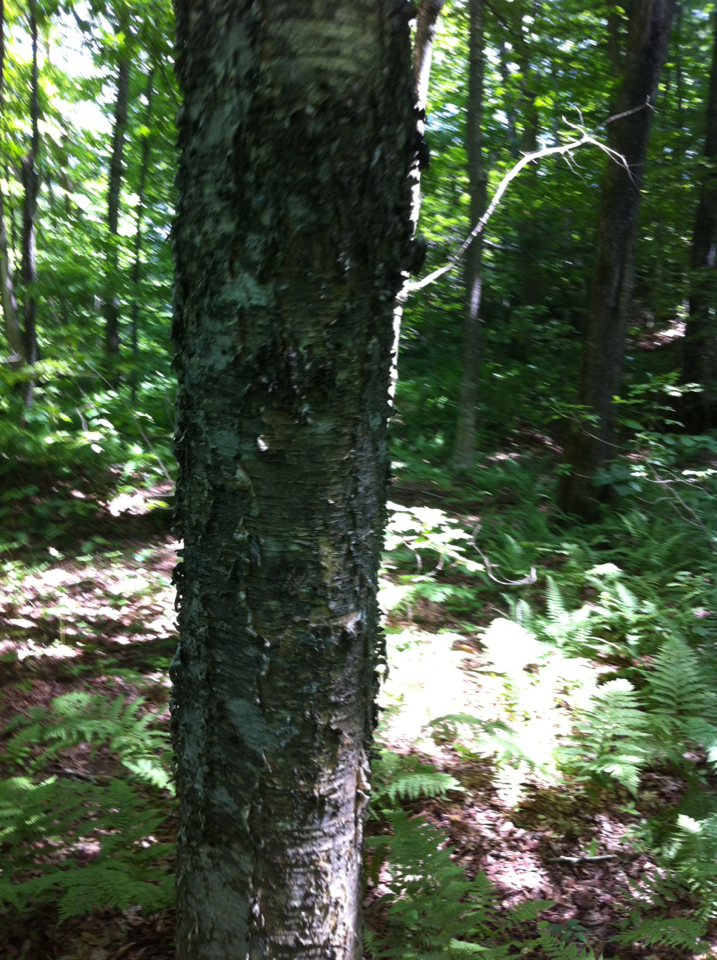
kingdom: Plantae
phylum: Tracheophyta
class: Magnoliopsida
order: Fagales
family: Betulaceae
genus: Betula
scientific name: Betula alleghaniensis
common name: Yellow birch
